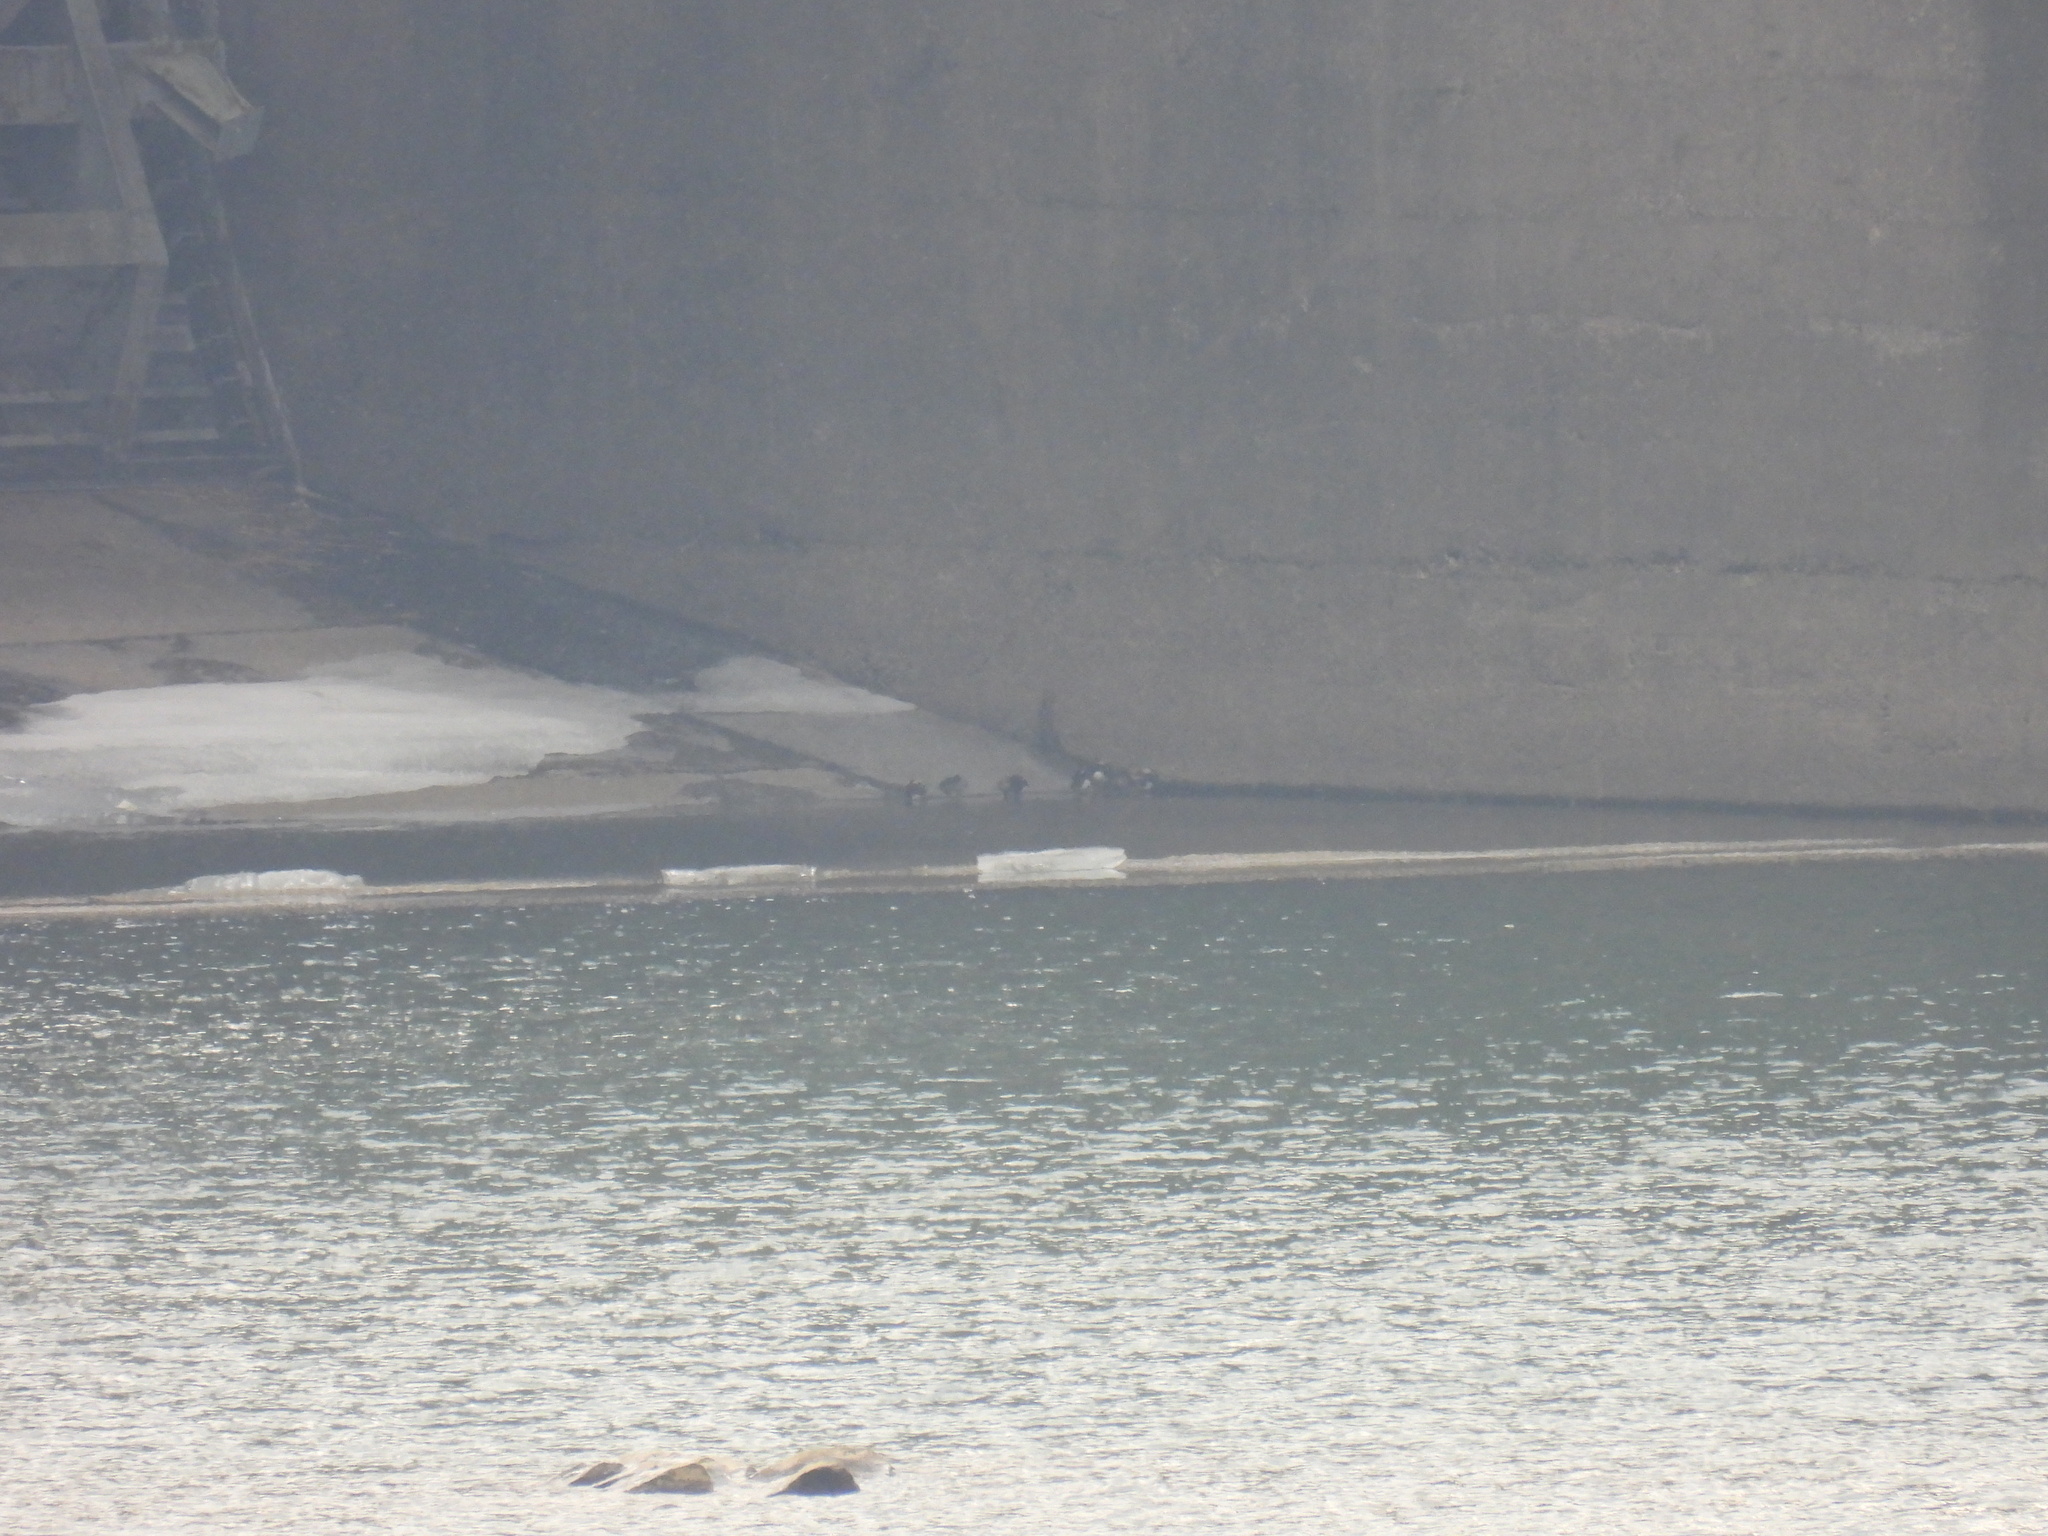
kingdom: Animalia
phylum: Chordata
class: Aves
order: Anseriformes
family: Anatidae
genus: Aix
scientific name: Aix galericulata
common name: Mandarin duck
